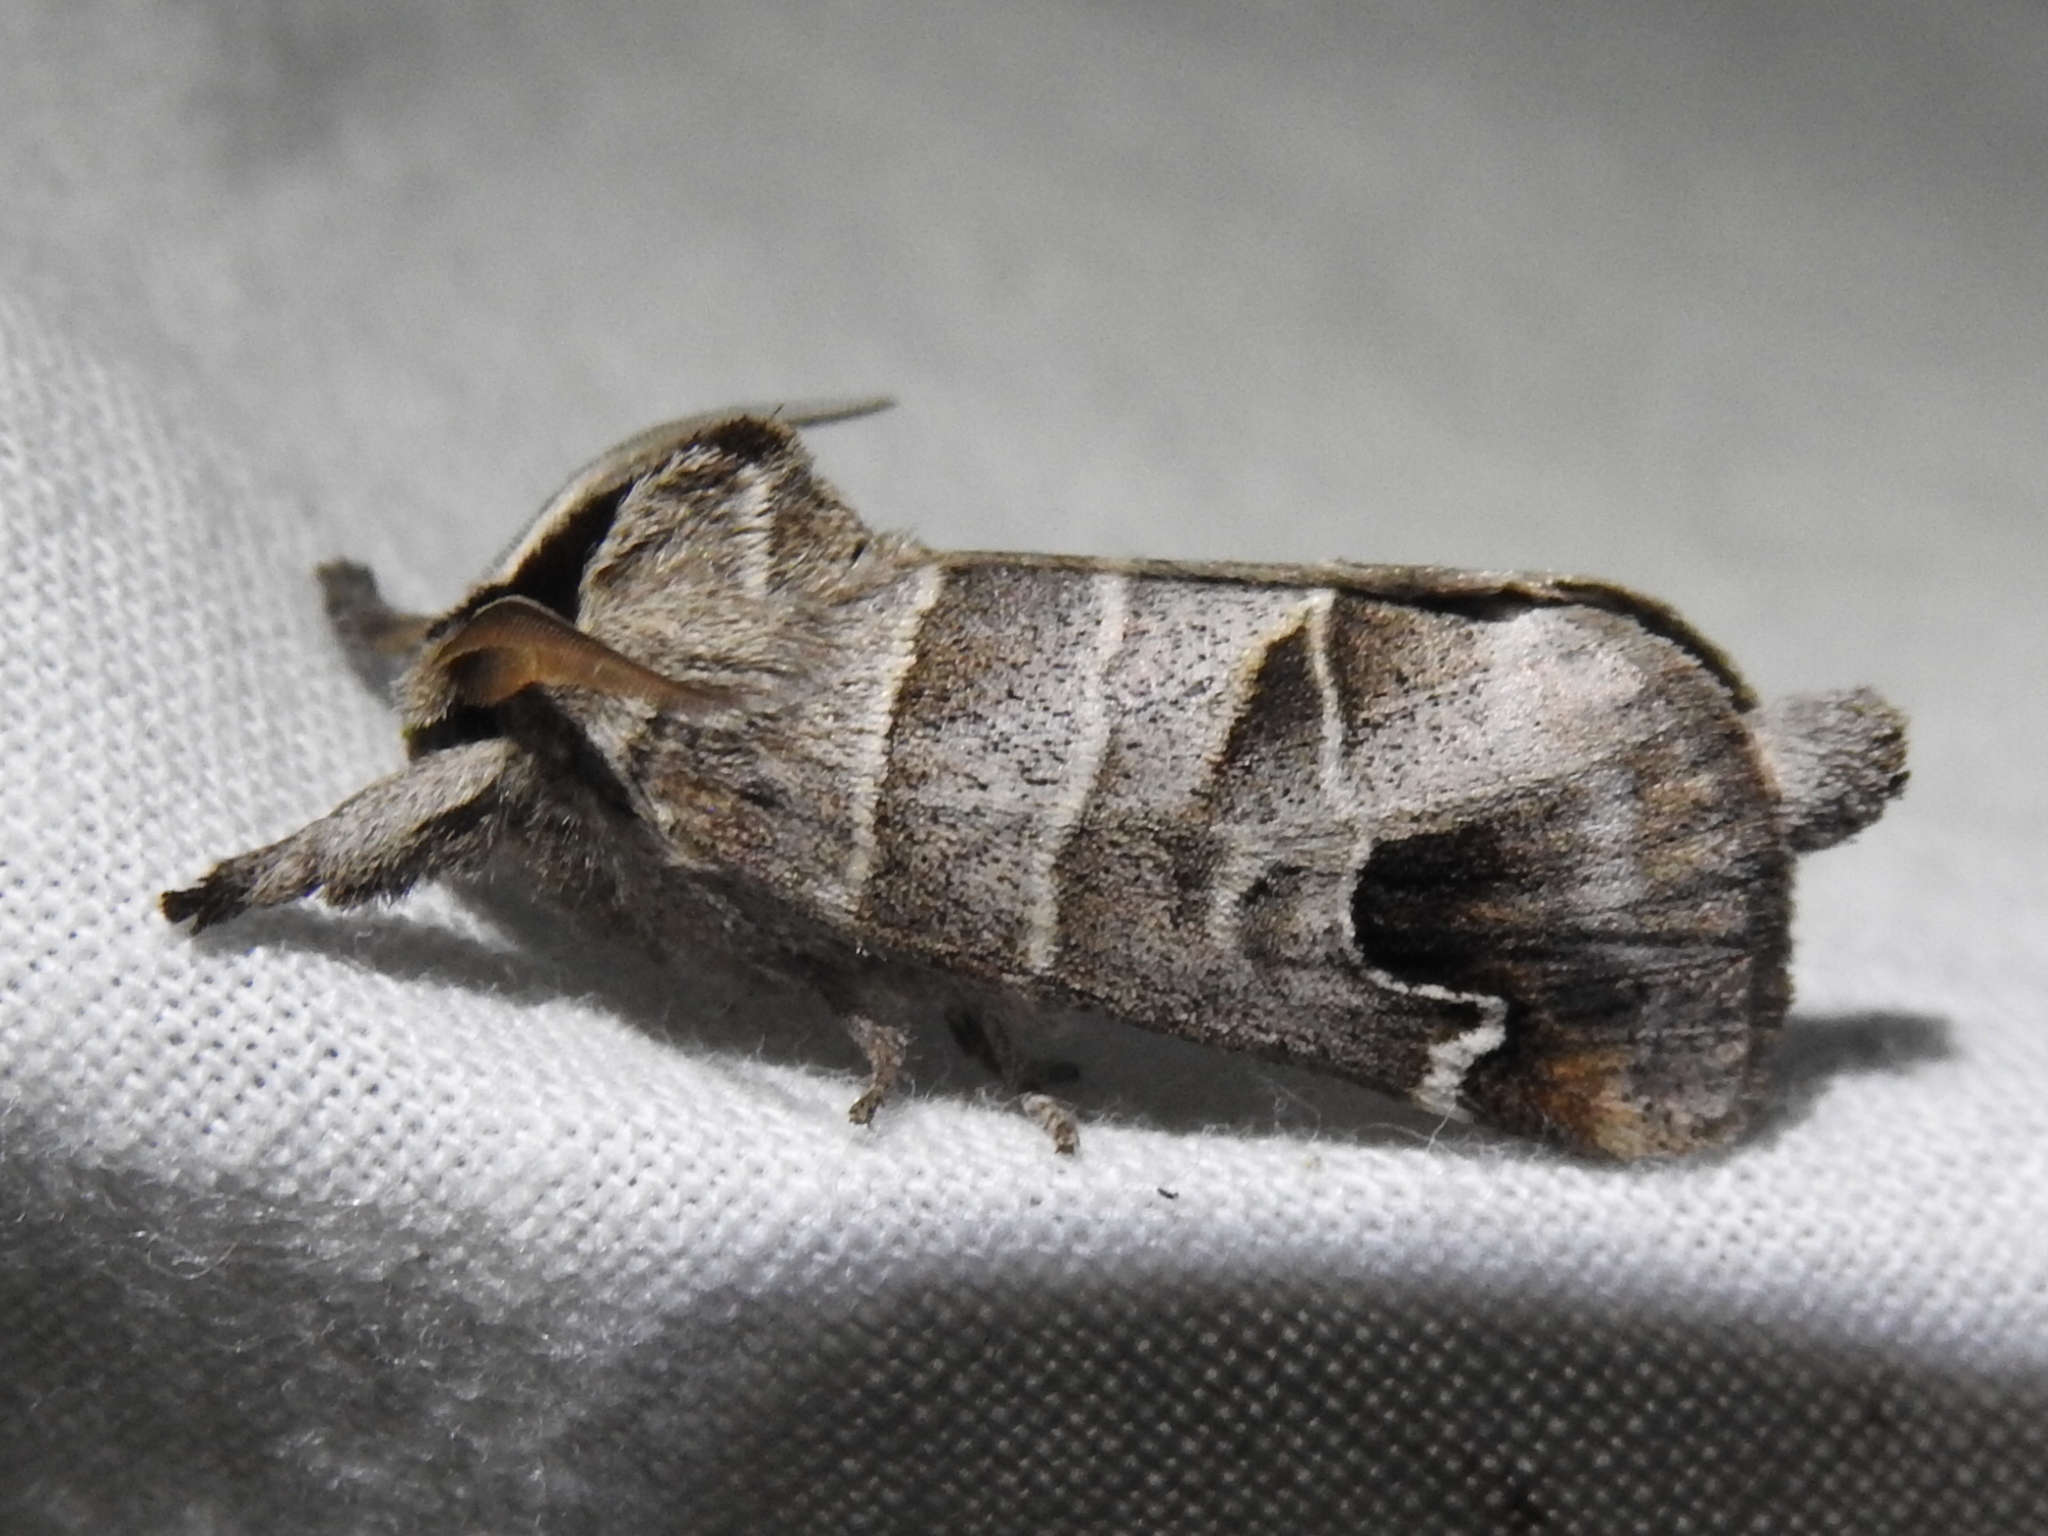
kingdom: Animalia
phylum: Arthropoda
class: Insecta
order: Lepidoptera
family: Notodontidae
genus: Clostera
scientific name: Clostera albosigma
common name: Sigmoid prominent
